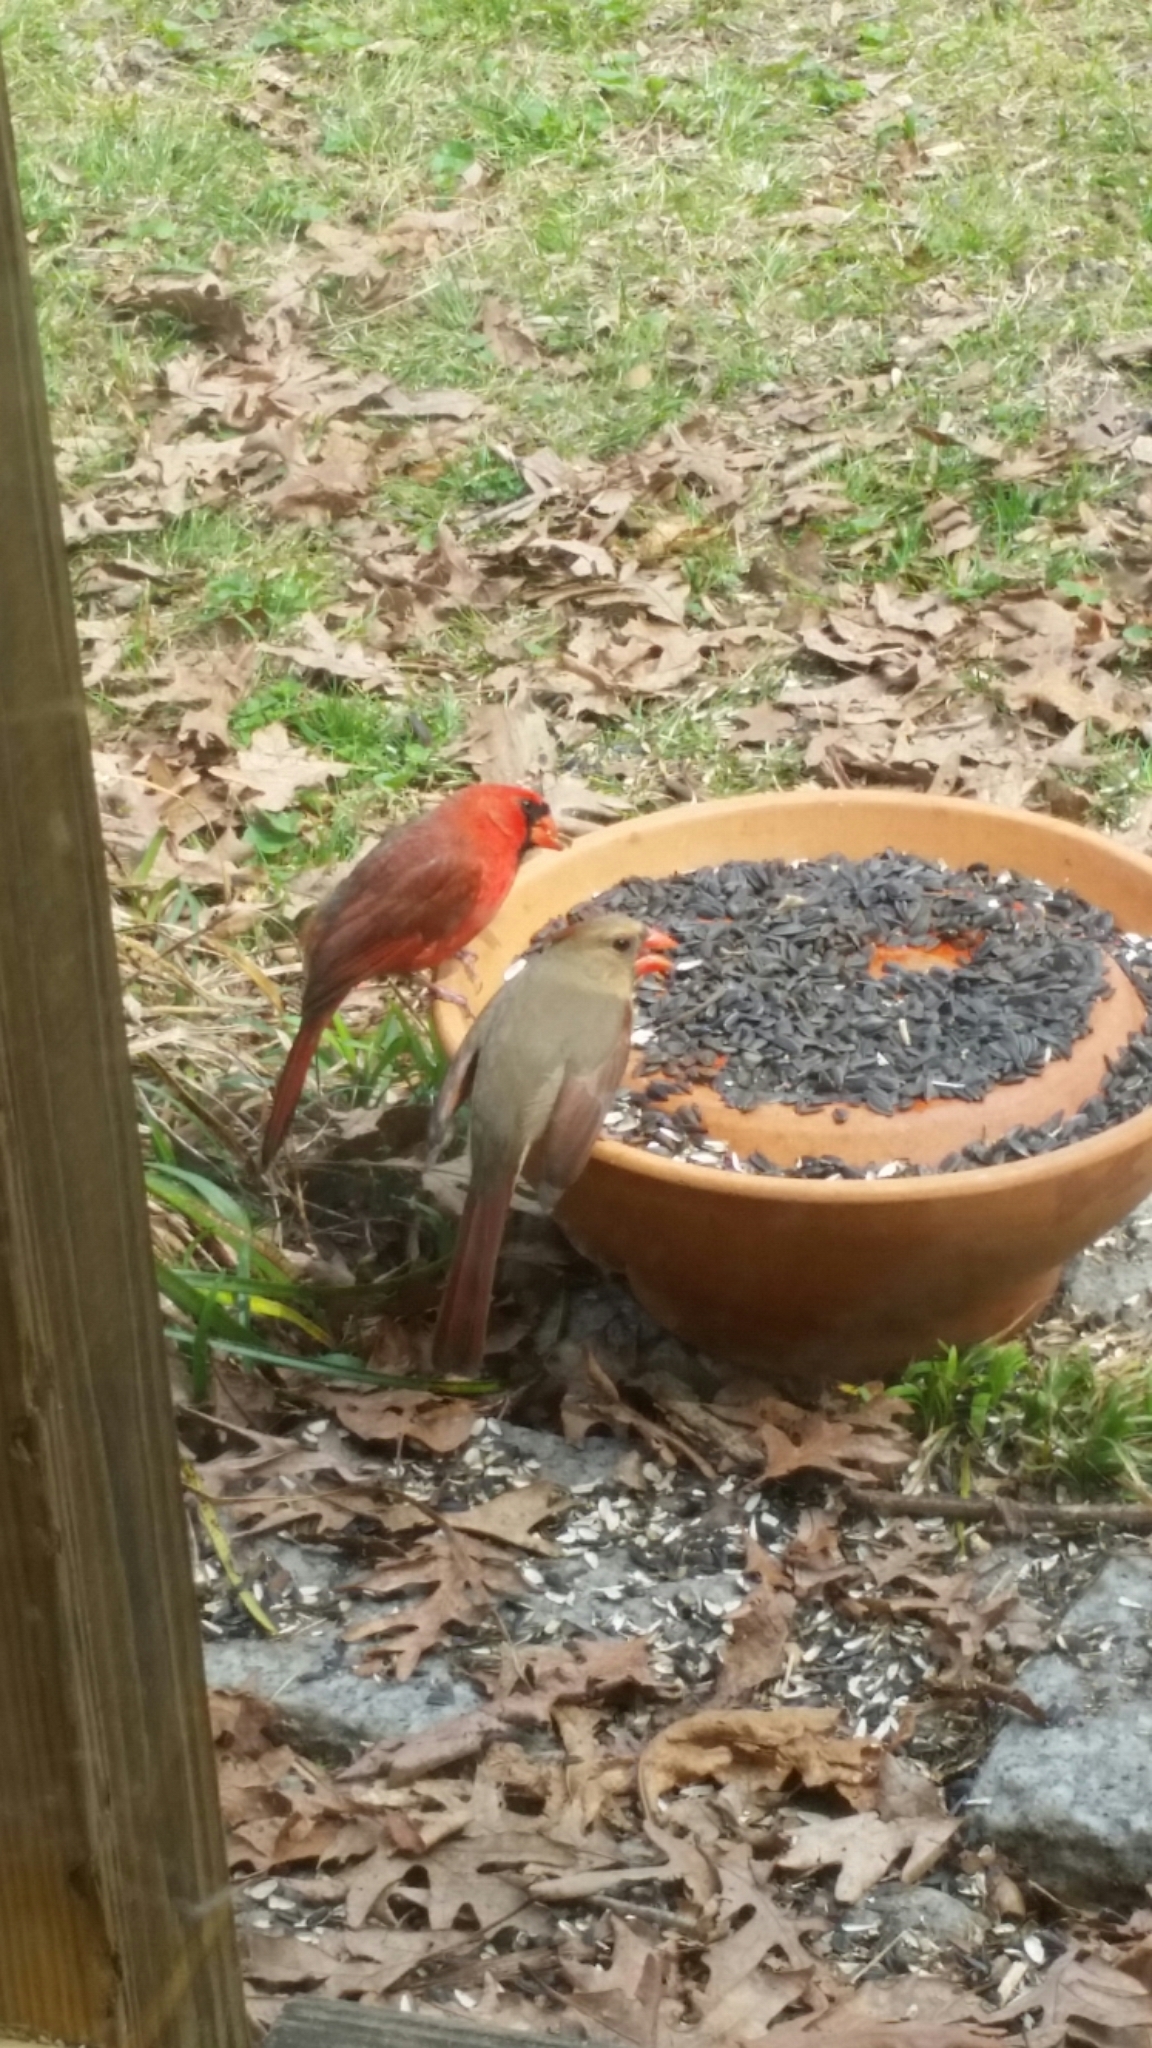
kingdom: Animalia
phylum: Chordata
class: Aves
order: Passeriformes
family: Cardinalidae
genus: Cardinalis
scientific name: Cardinalis cardinalis
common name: Northern cardinal
